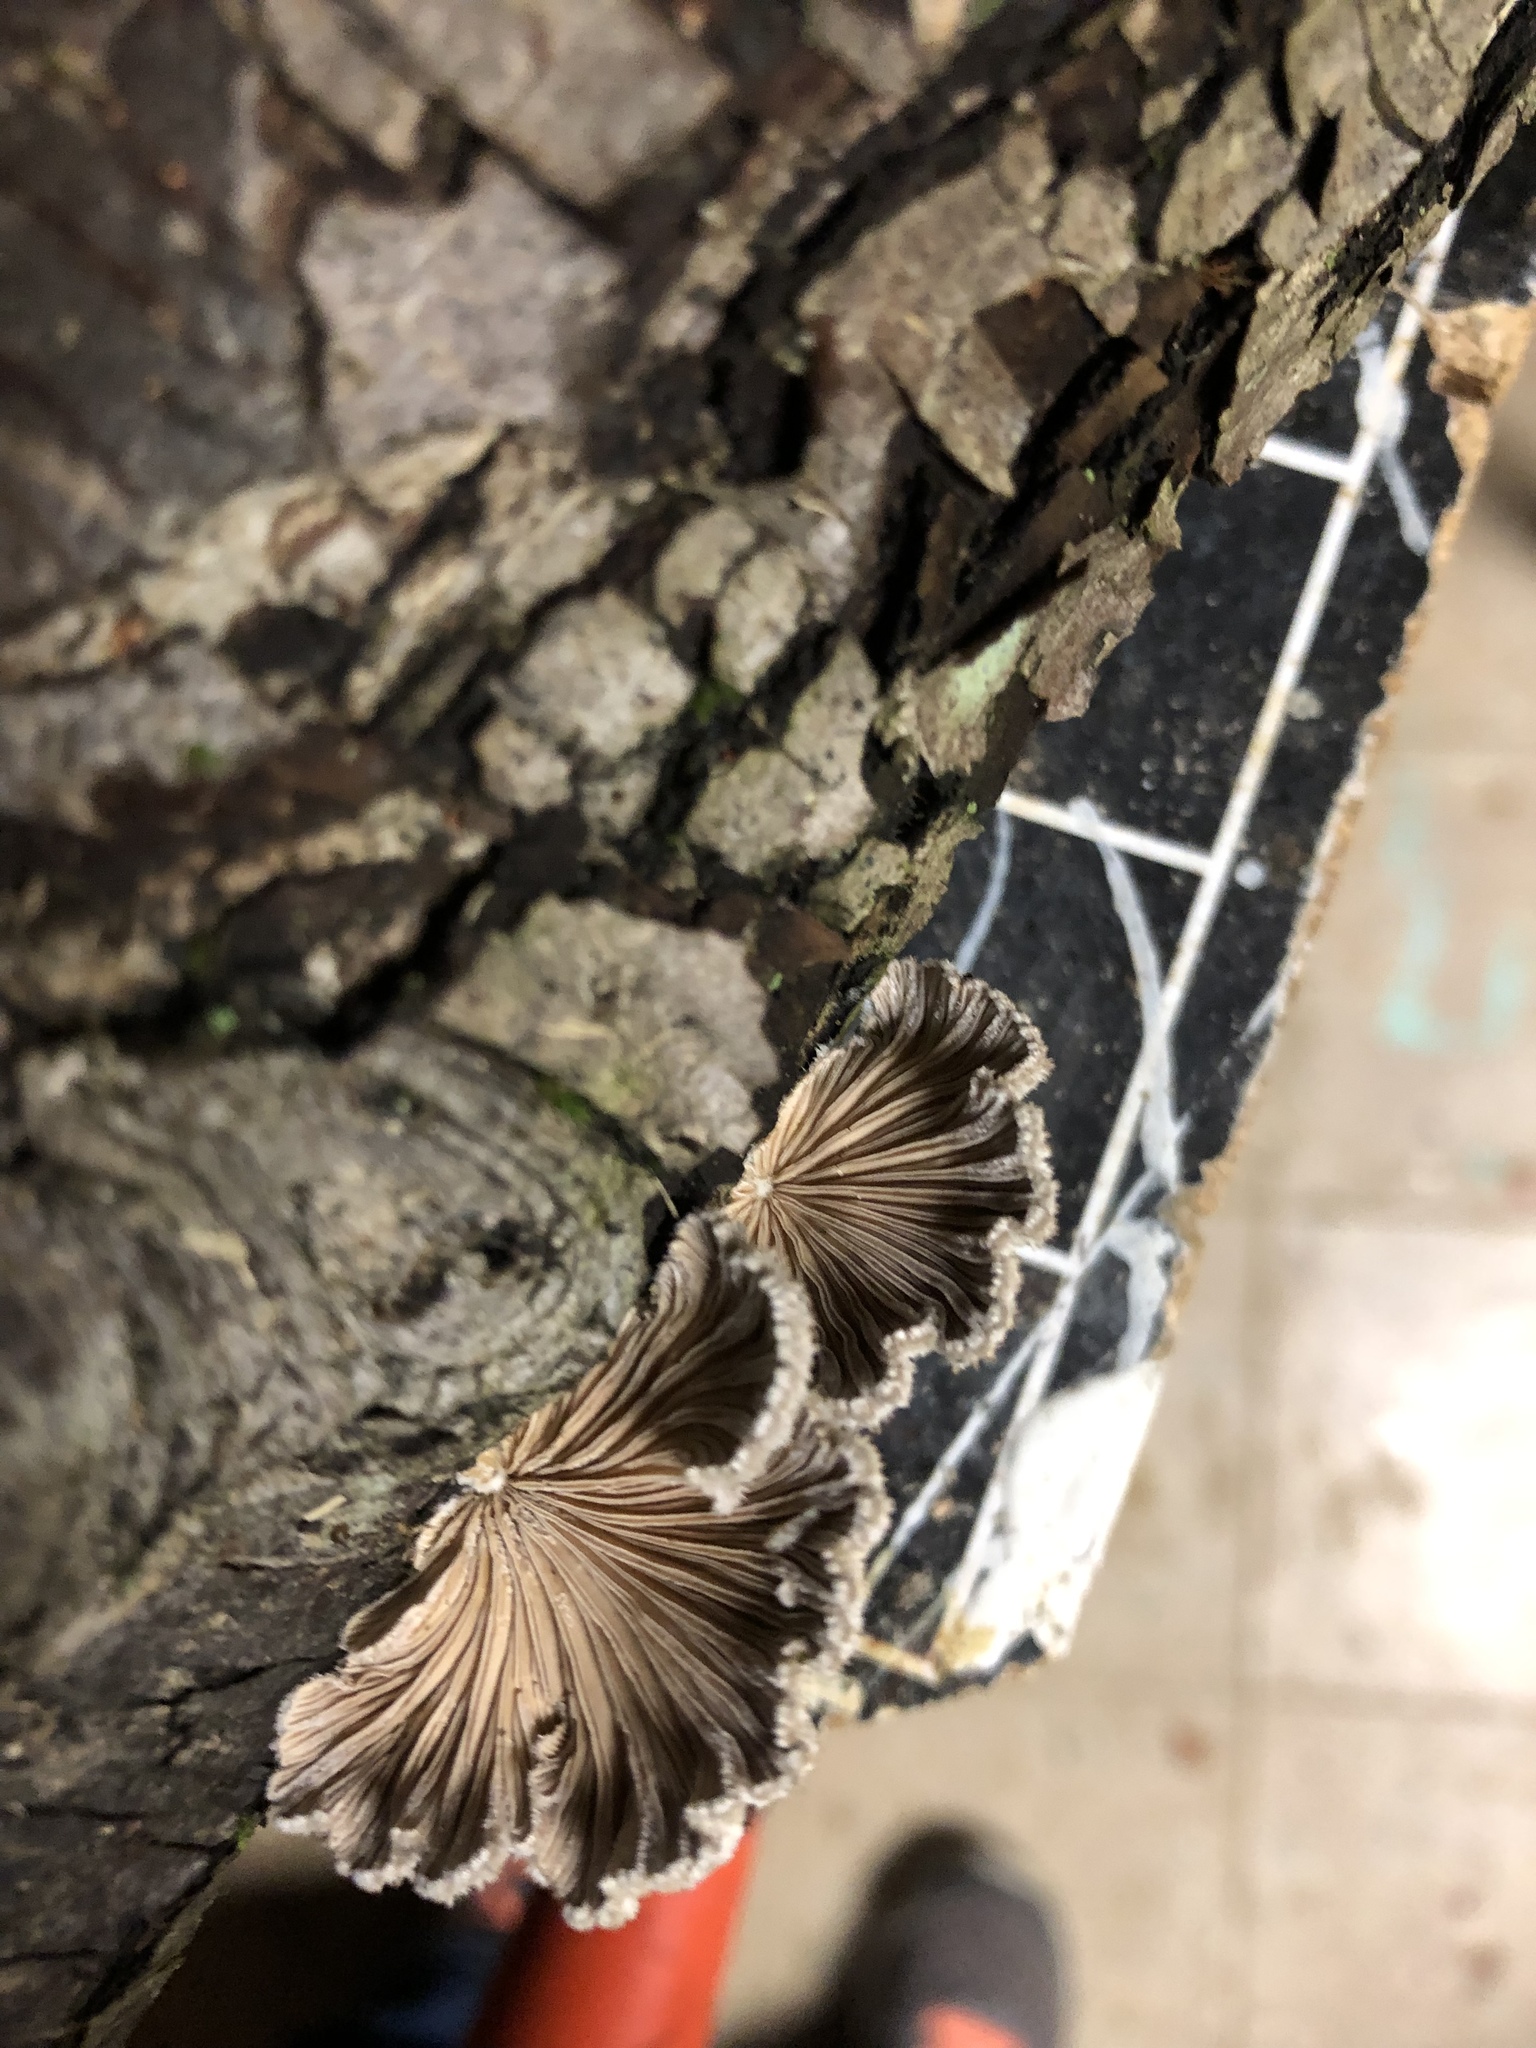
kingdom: Fungi
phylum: Basidiomycota
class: Agaricomycetes
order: Agaricales
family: Schizophyllaceae
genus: Schizophyllum
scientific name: Schizophyllum commune
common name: Common porecrust
